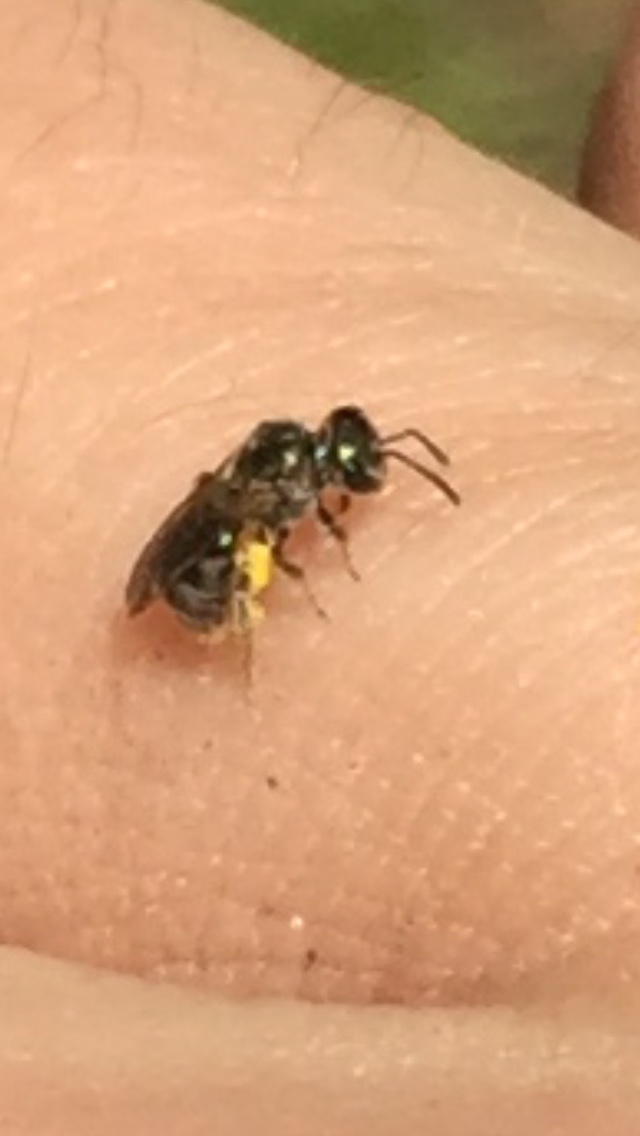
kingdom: Animalia
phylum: Arthropoda
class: Insecta
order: Hymenoptera
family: Halictidae
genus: Dialictus
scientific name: Dialictus
